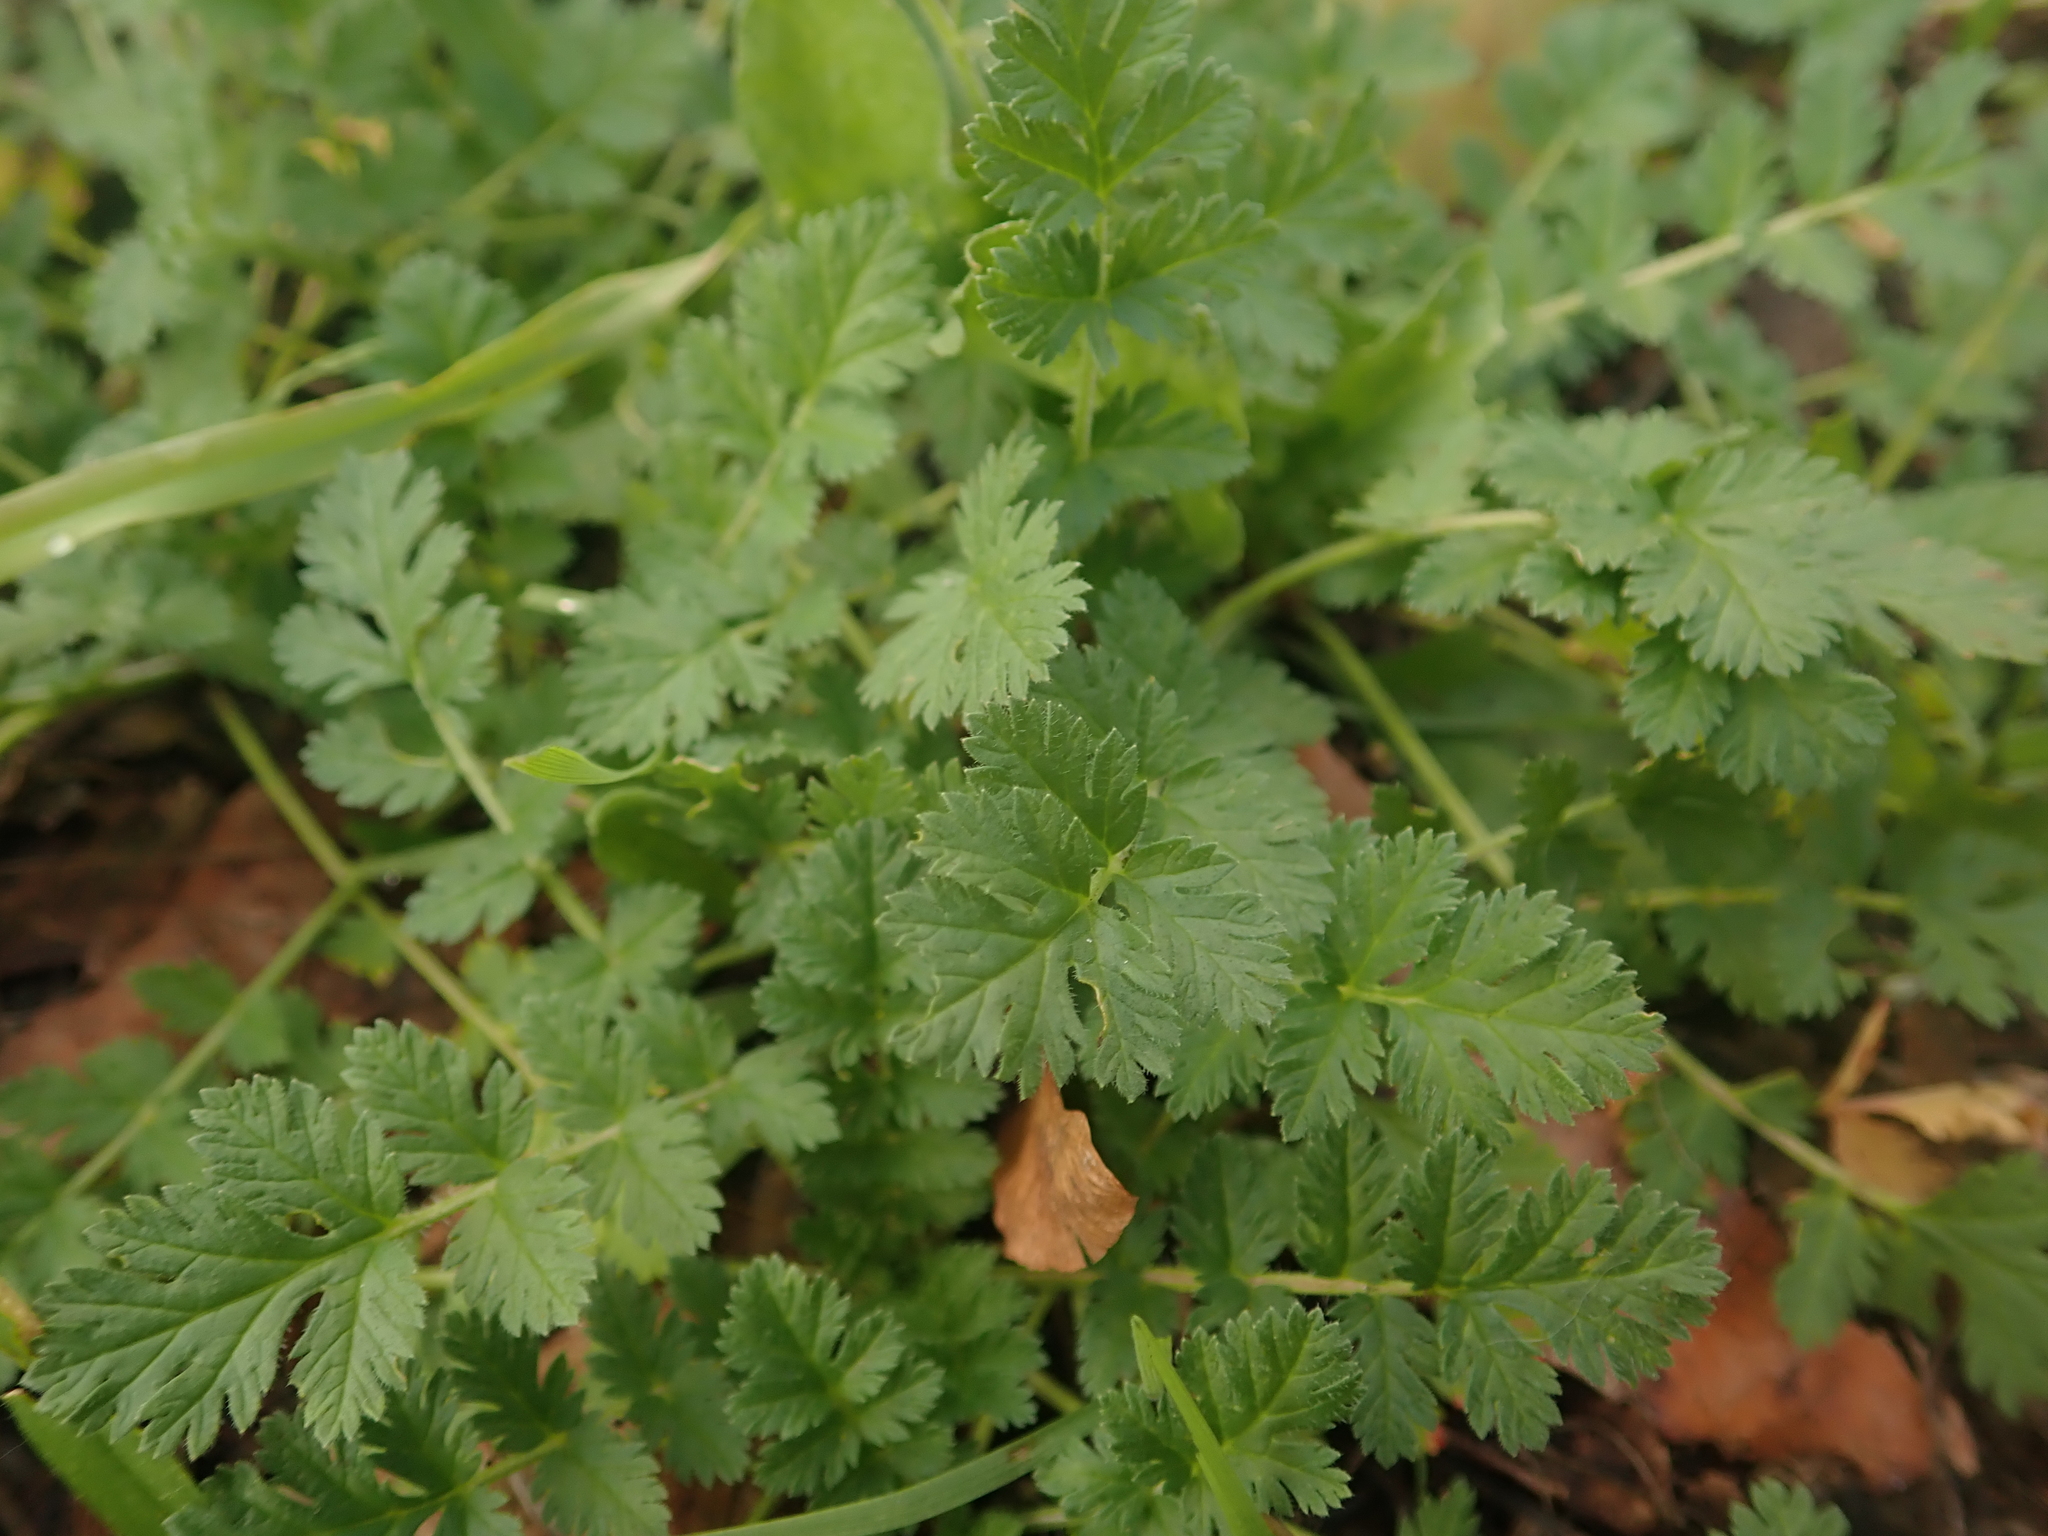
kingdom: Plantae
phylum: Tracheophyta
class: Magnoliopsida
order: Geraniales
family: Geraniaceae
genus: Erodium
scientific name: Erodium cicutarium
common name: Common stork's-bill
